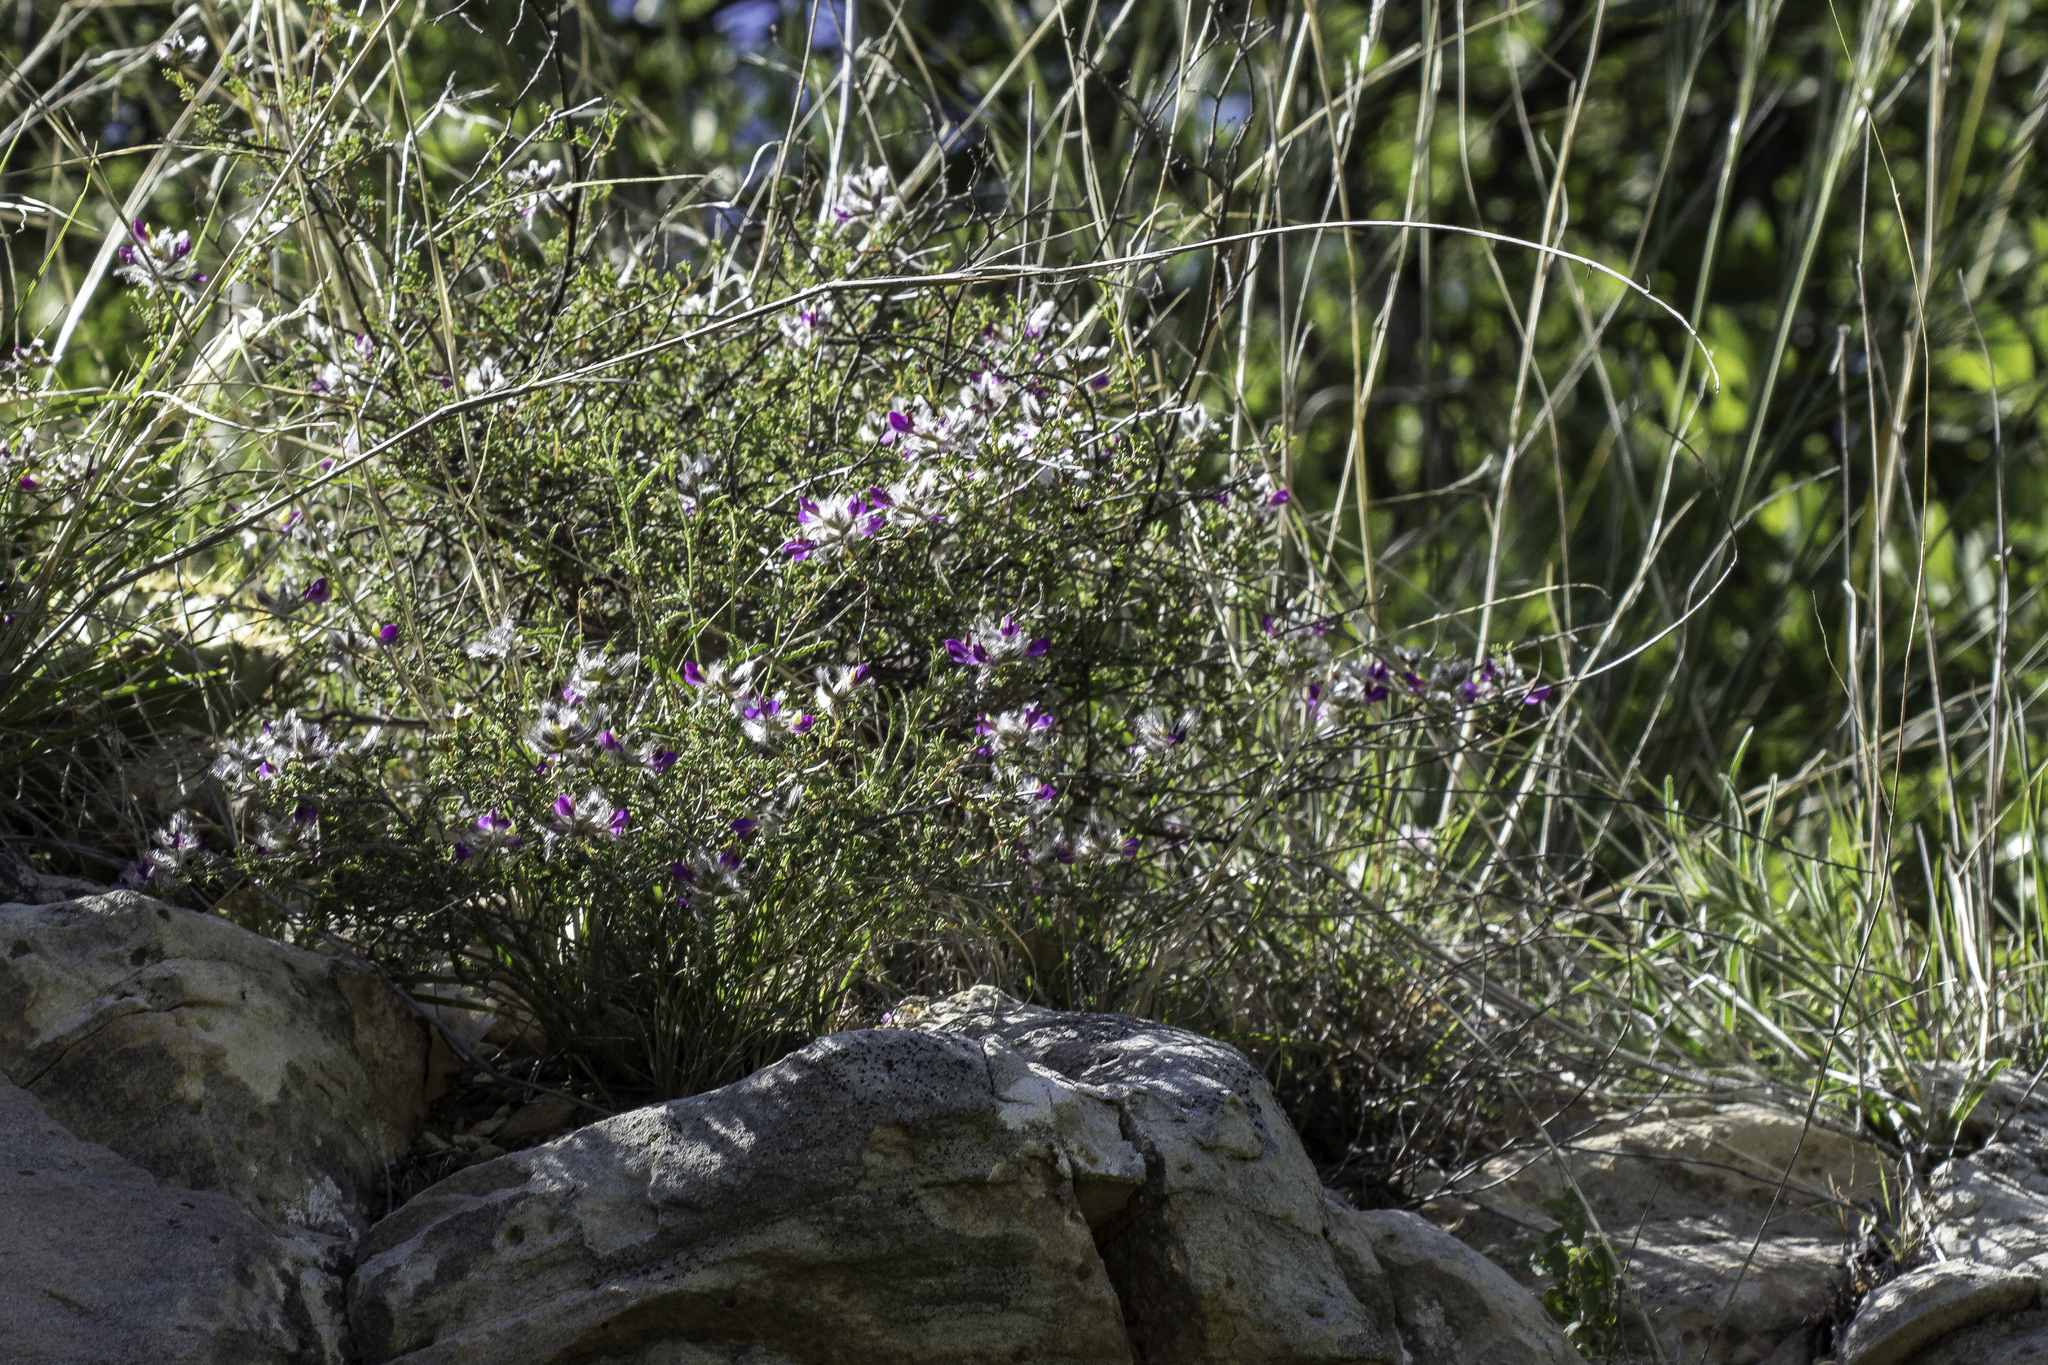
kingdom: Plantae
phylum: Tracheophyta
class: Magnoliopsida
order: Fabales
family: Fabaceae
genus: Dalea
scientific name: Dalea formosa
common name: Feather-plume dalea
